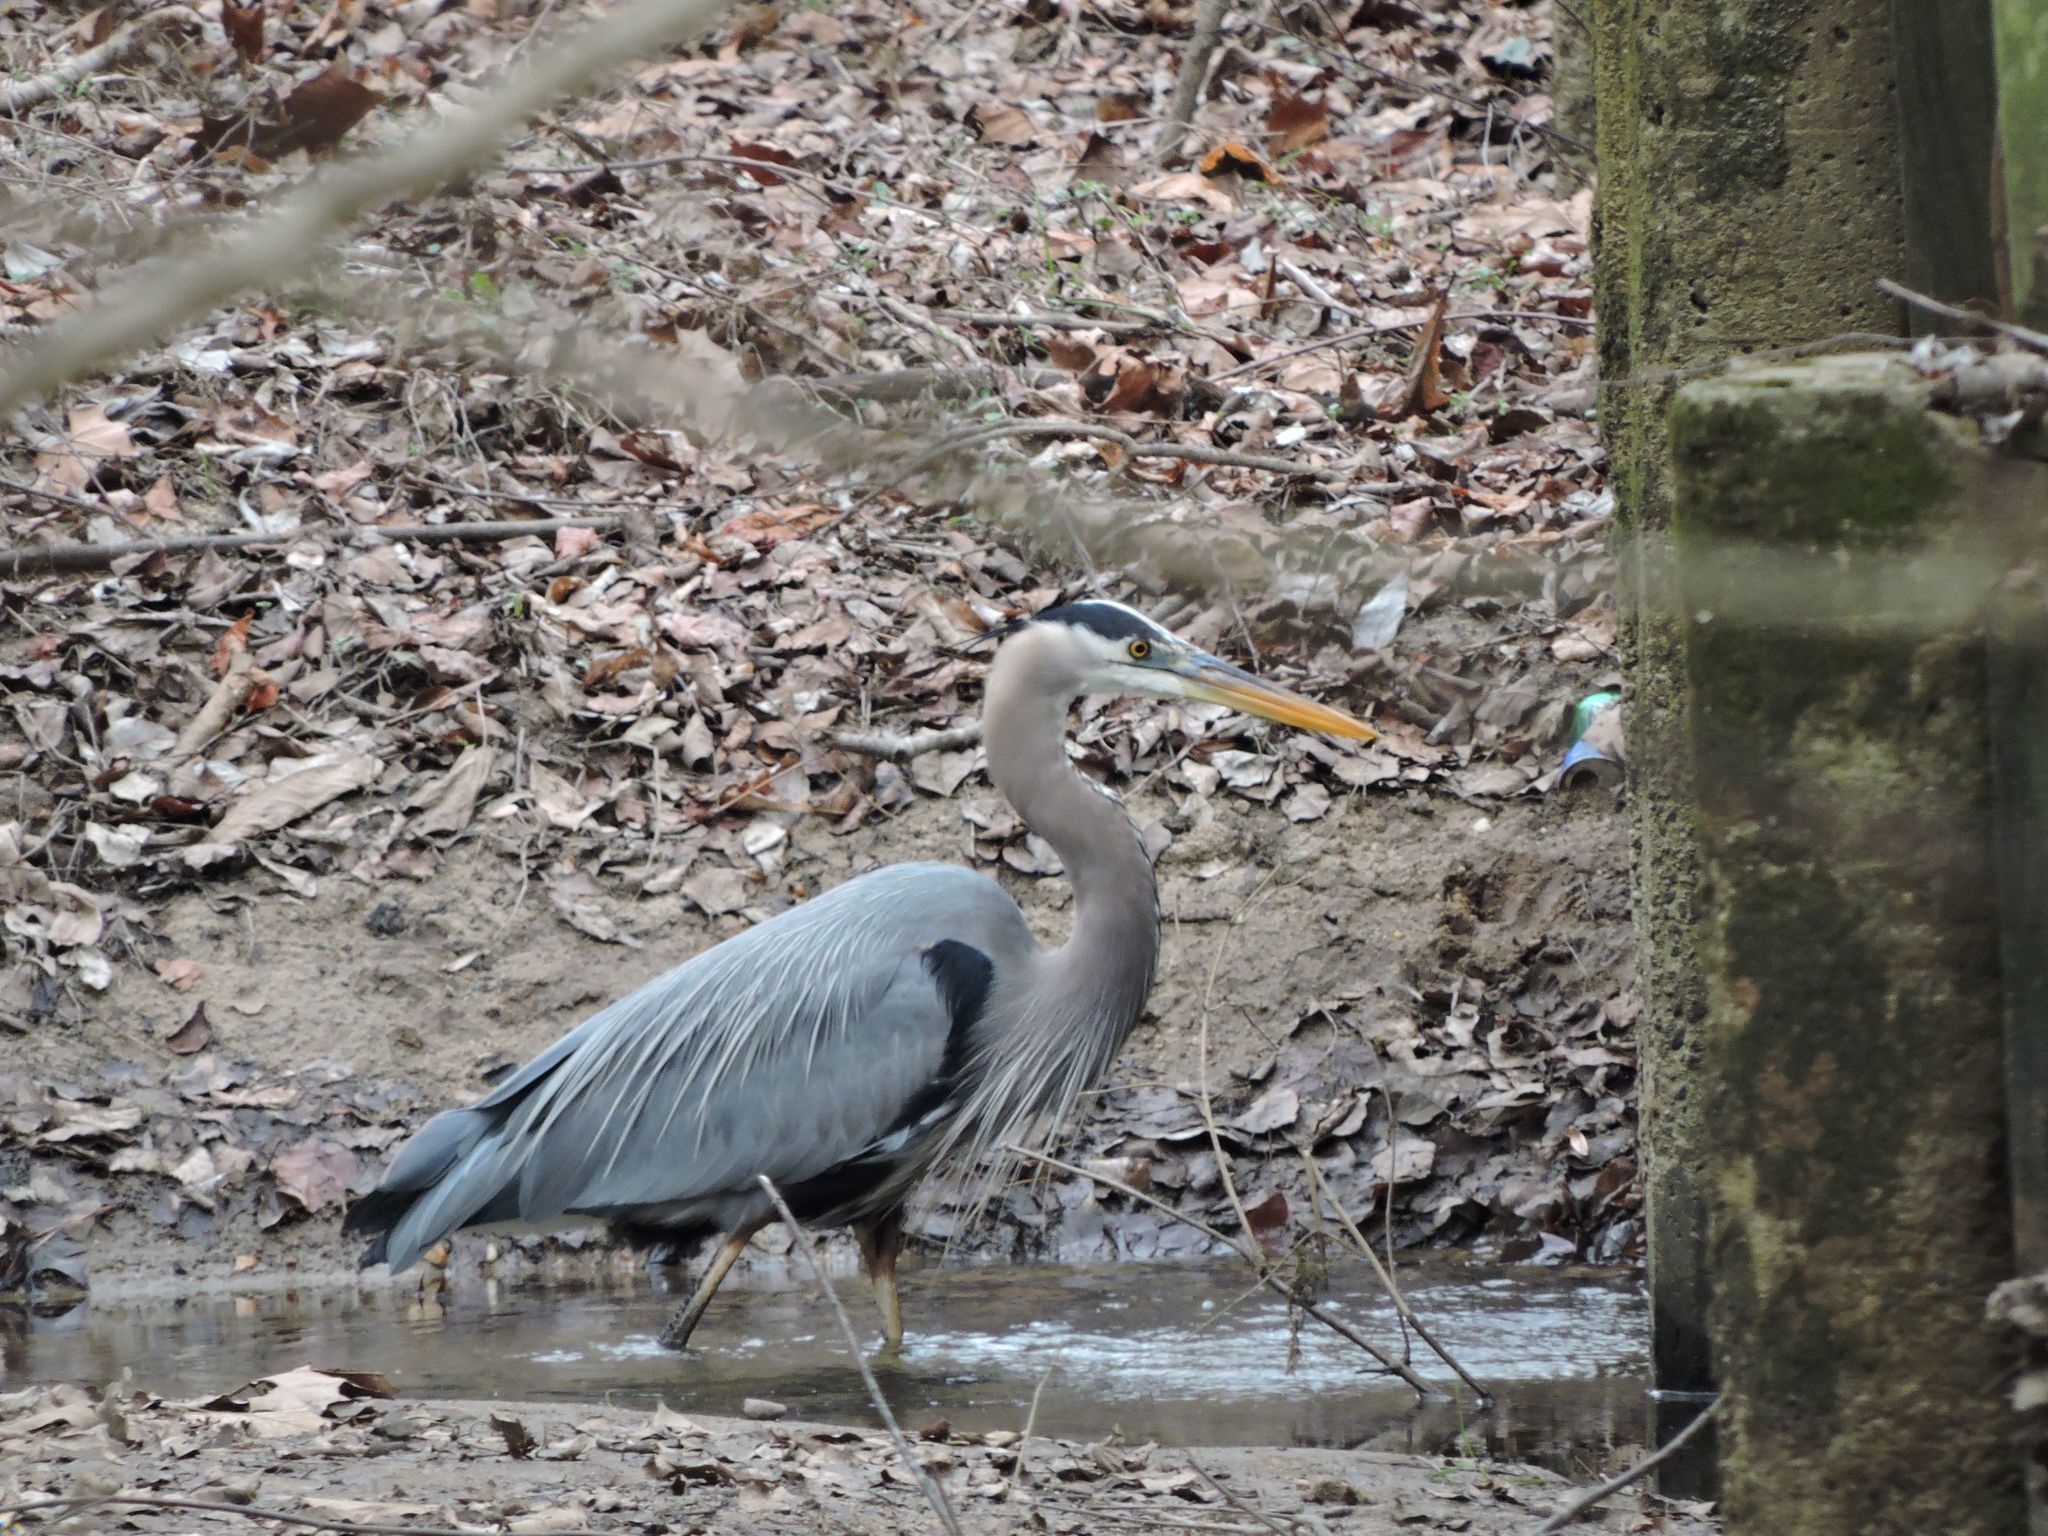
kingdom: Animalia
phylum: Chordata
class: Aves
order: Pelecaniformes
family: Ardeidae
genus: Ardea
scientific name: Ardea herodias
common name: Great blue heron
